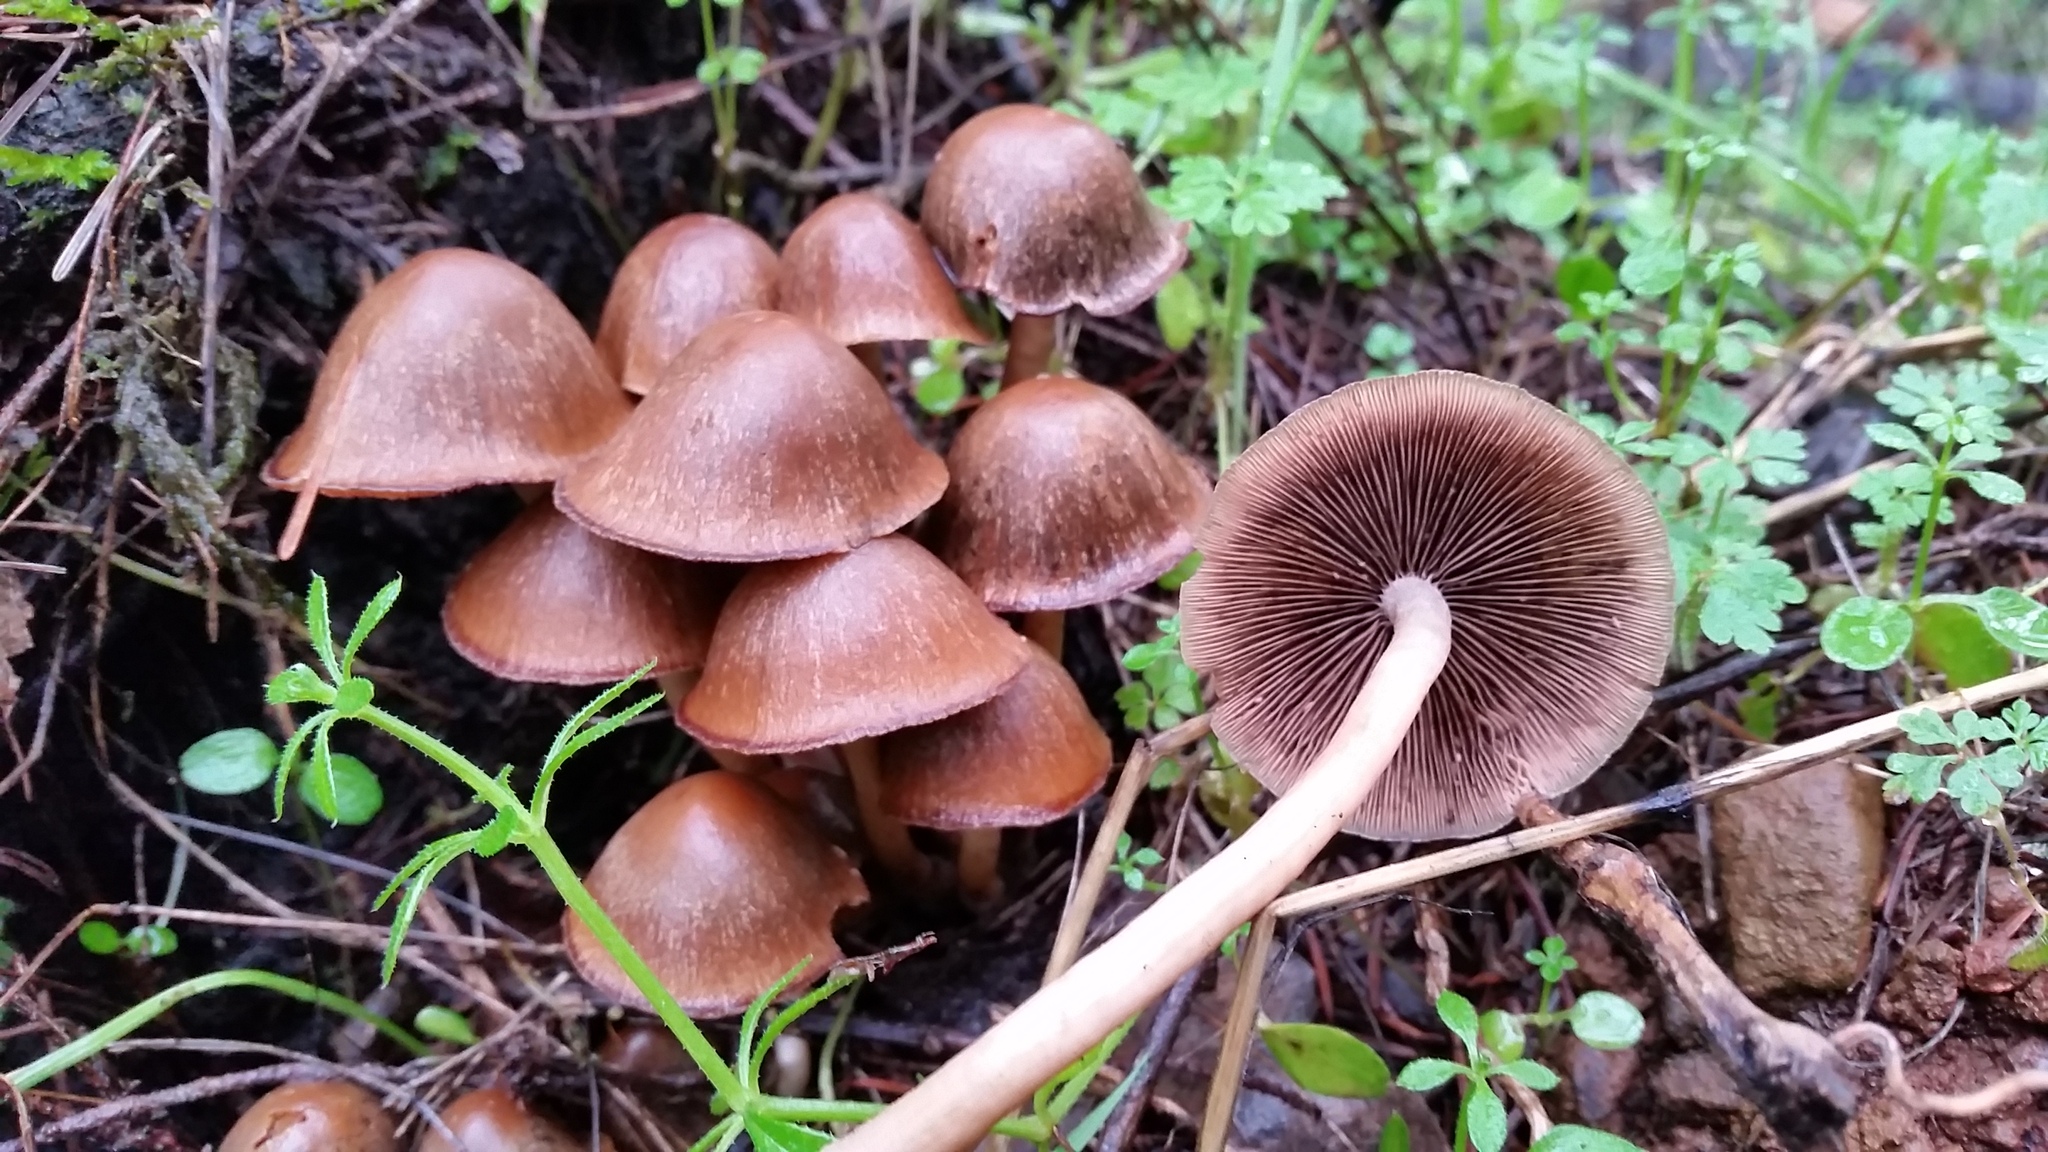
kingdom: Fungi
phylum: Basidiomycota
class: Agaricomycetes
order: Agaricales
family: Psathyrellaceae
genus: Psathyrella
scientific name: Psathyrella piluliformis
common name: Common stump brittlestem
